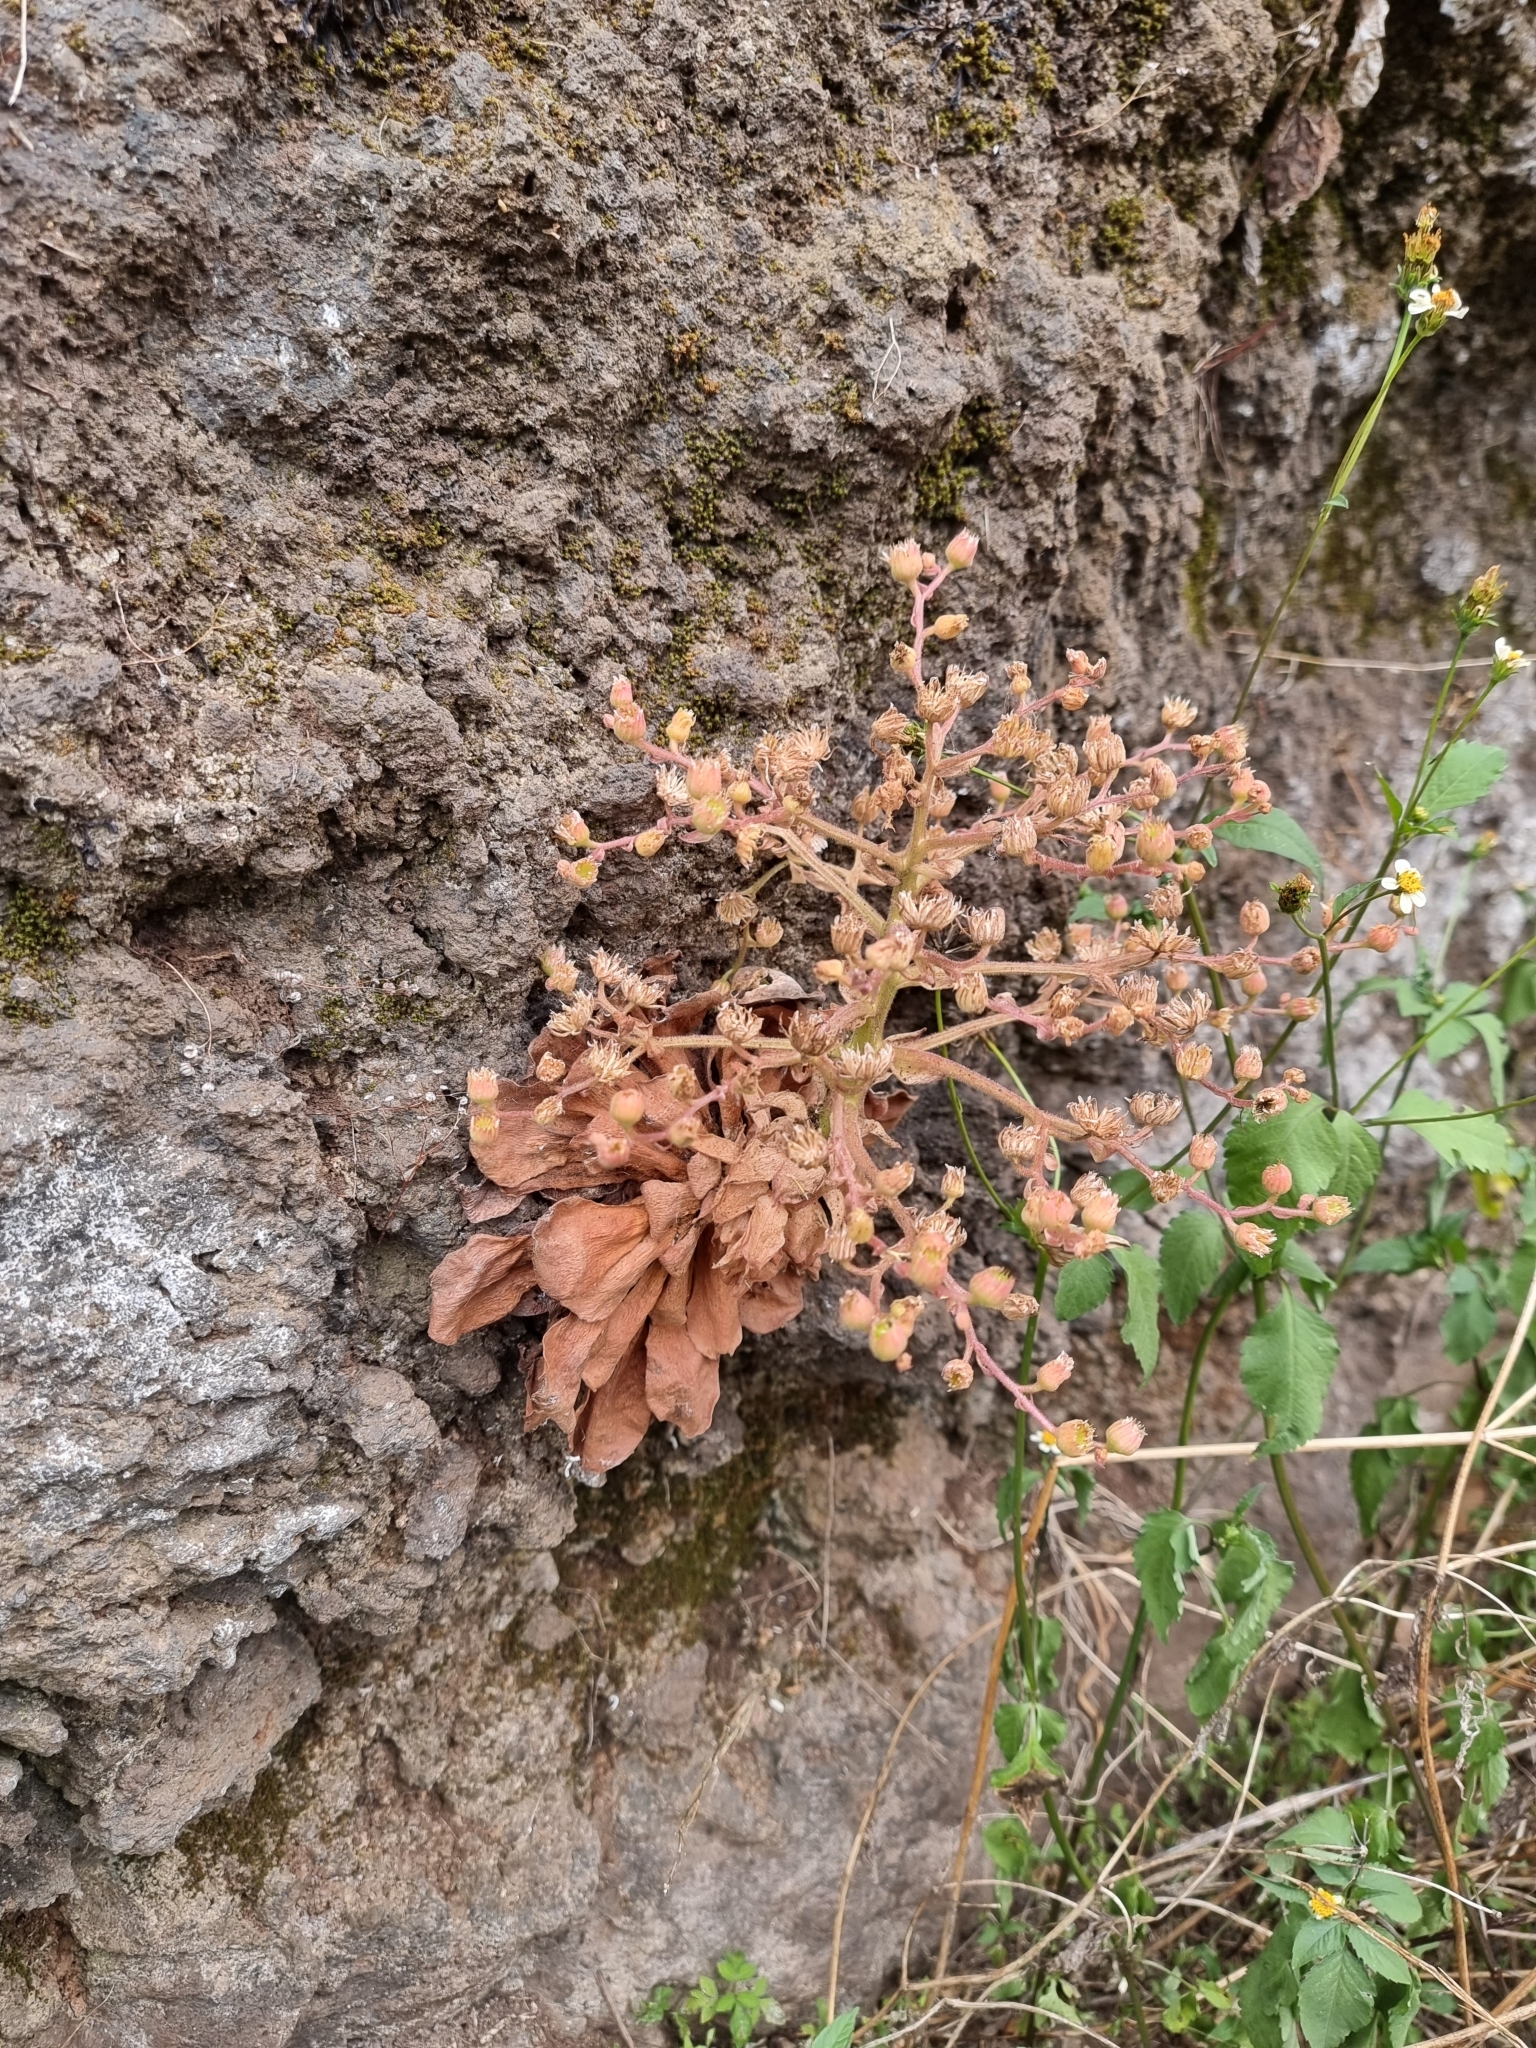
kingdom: Plantae
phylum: Tracheophyta
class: Magnoliopsida
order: Saxifragales
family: Crassulaceae
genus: Aeonium
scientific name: Aeonium glandulosum
